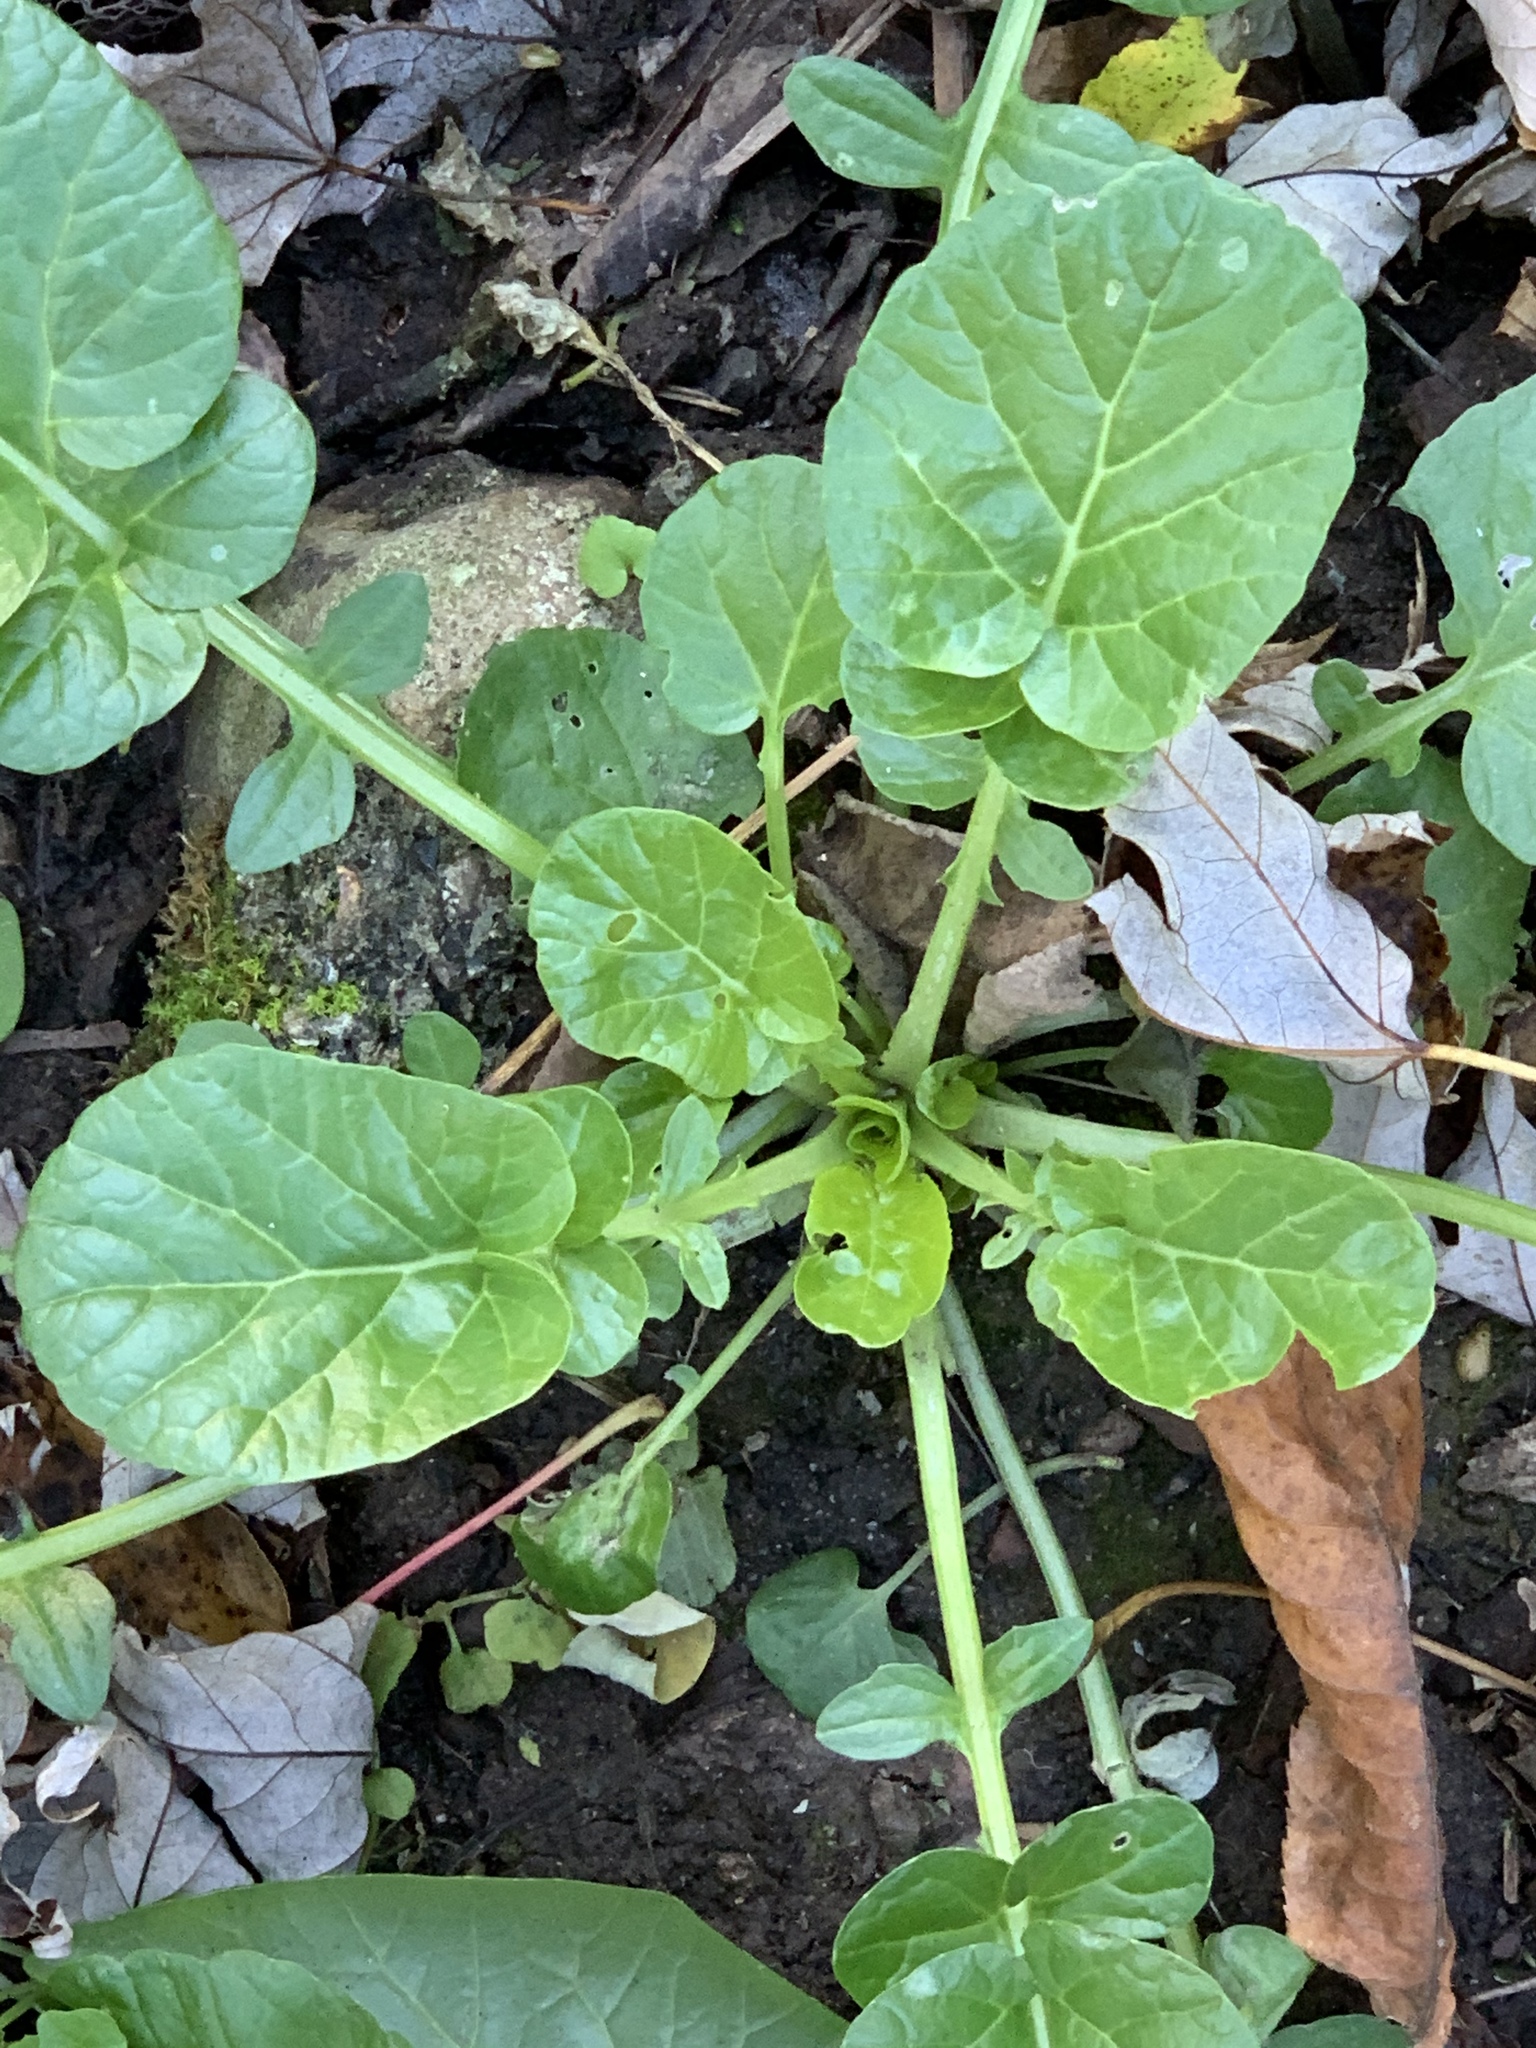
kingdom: Plantae
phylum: Tracheophyta
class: Magnoliopsida
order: Brassicales
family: Brassicaceae
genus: Barbarea
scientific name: Barbarea vulgaris
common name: Cressy-greens
